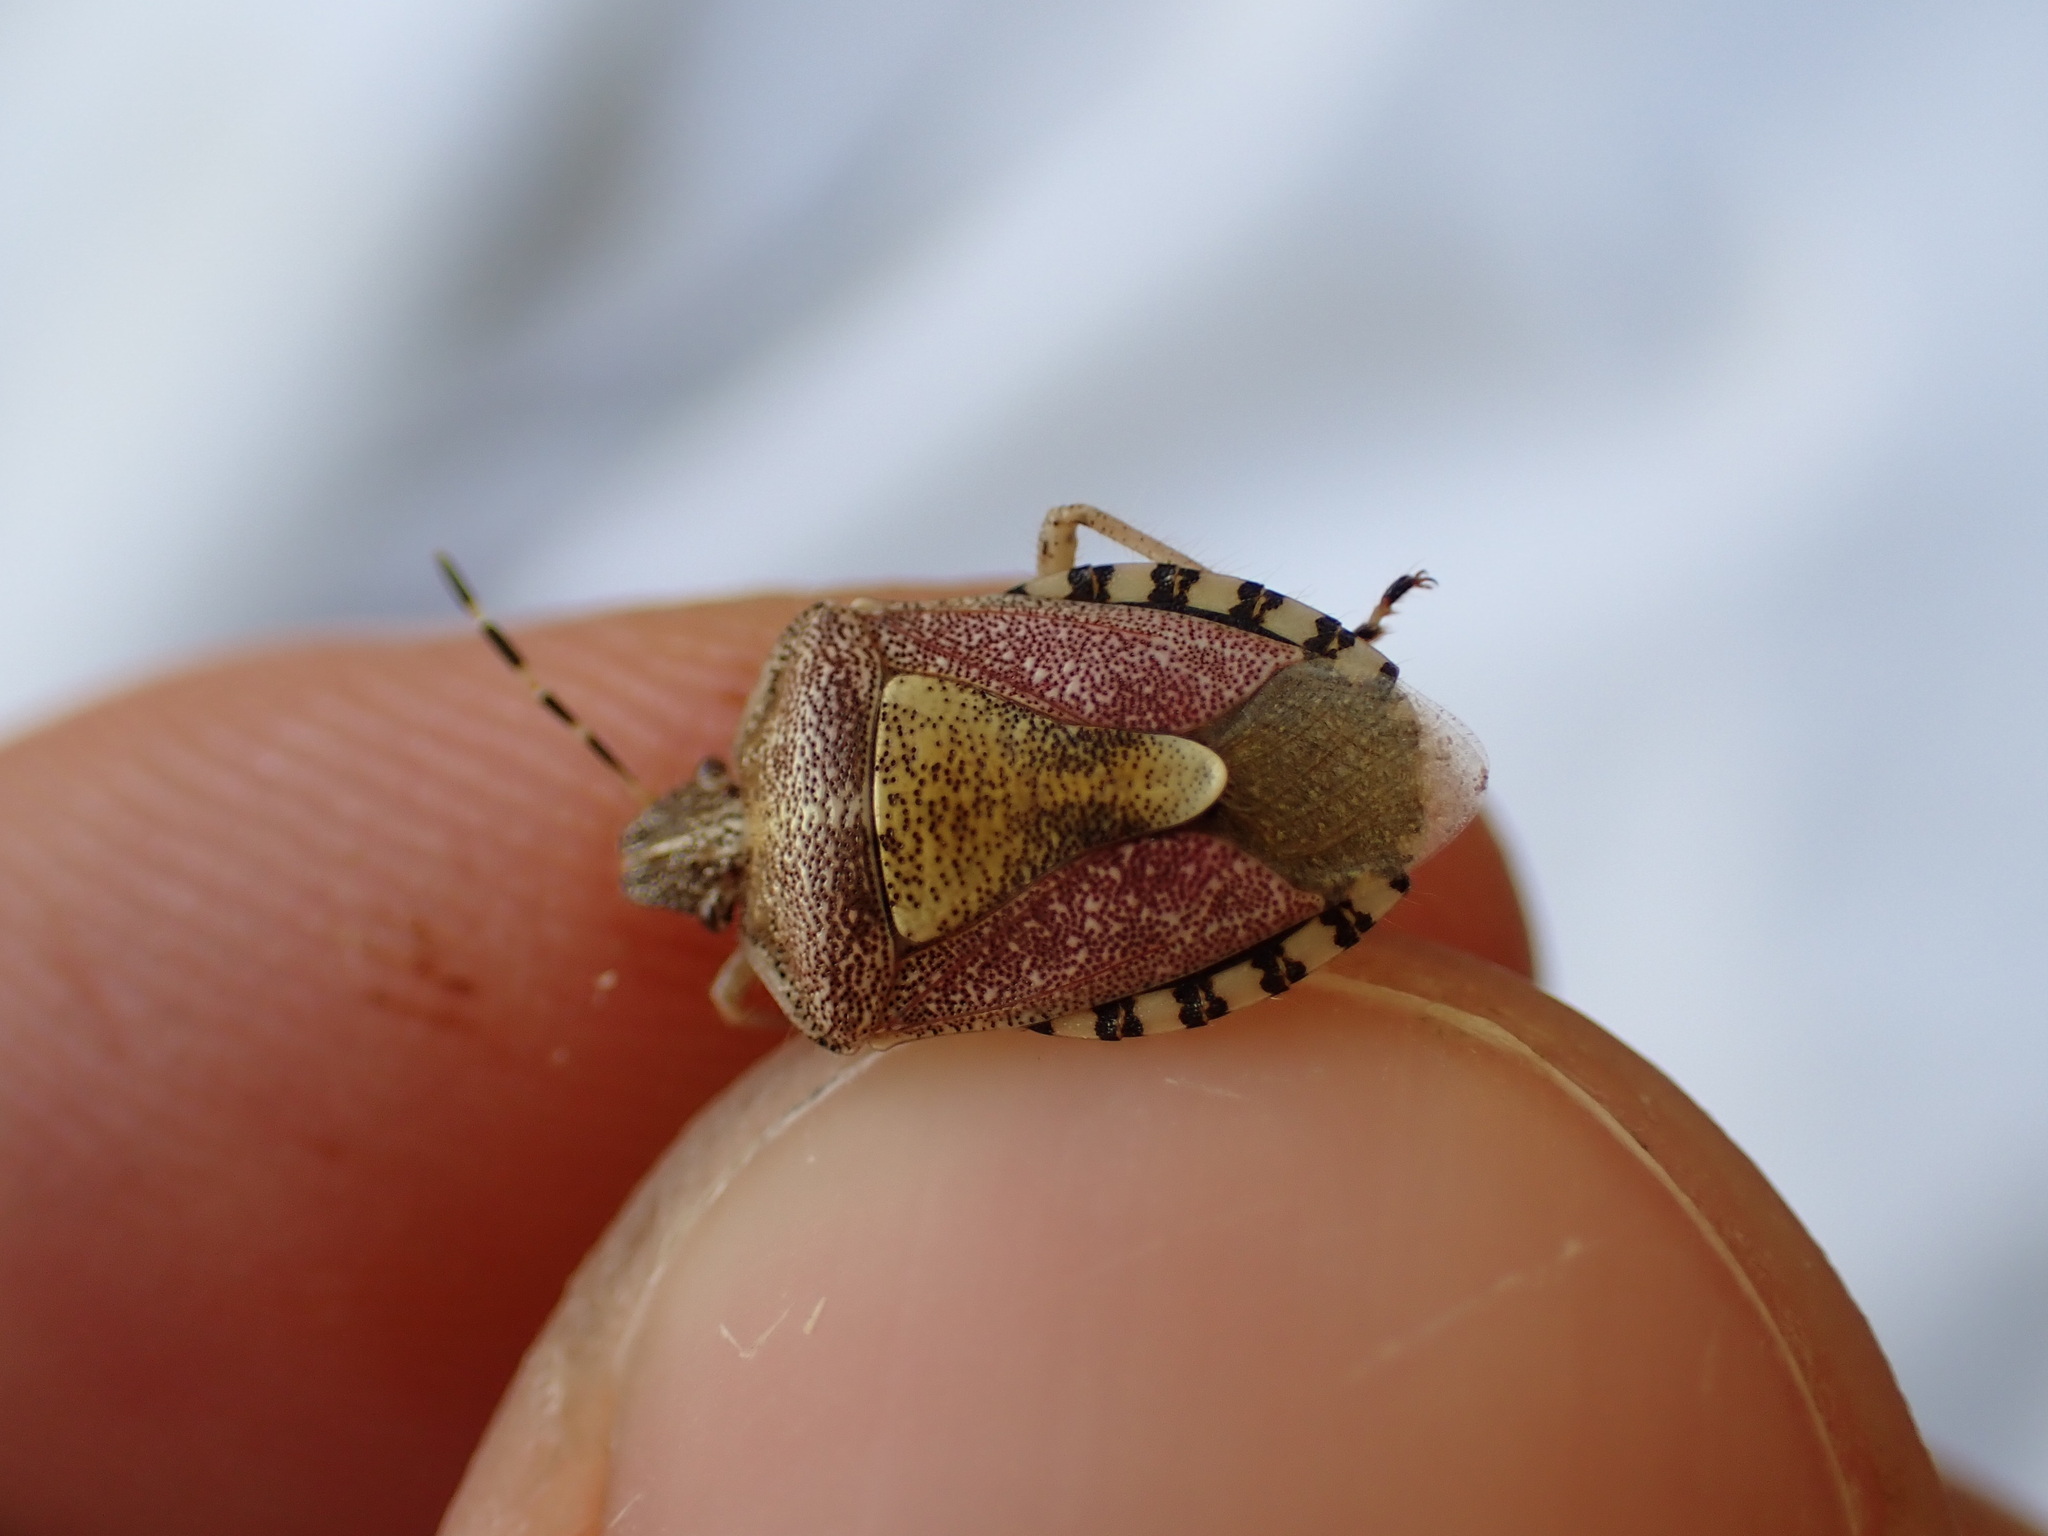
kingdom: Animalia
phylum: Arthropoda
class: Insecta
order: Hemiptera
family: Pentatomidae
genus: Dolycoris
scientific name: Dolycoris baccarum
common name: Sloe bug
